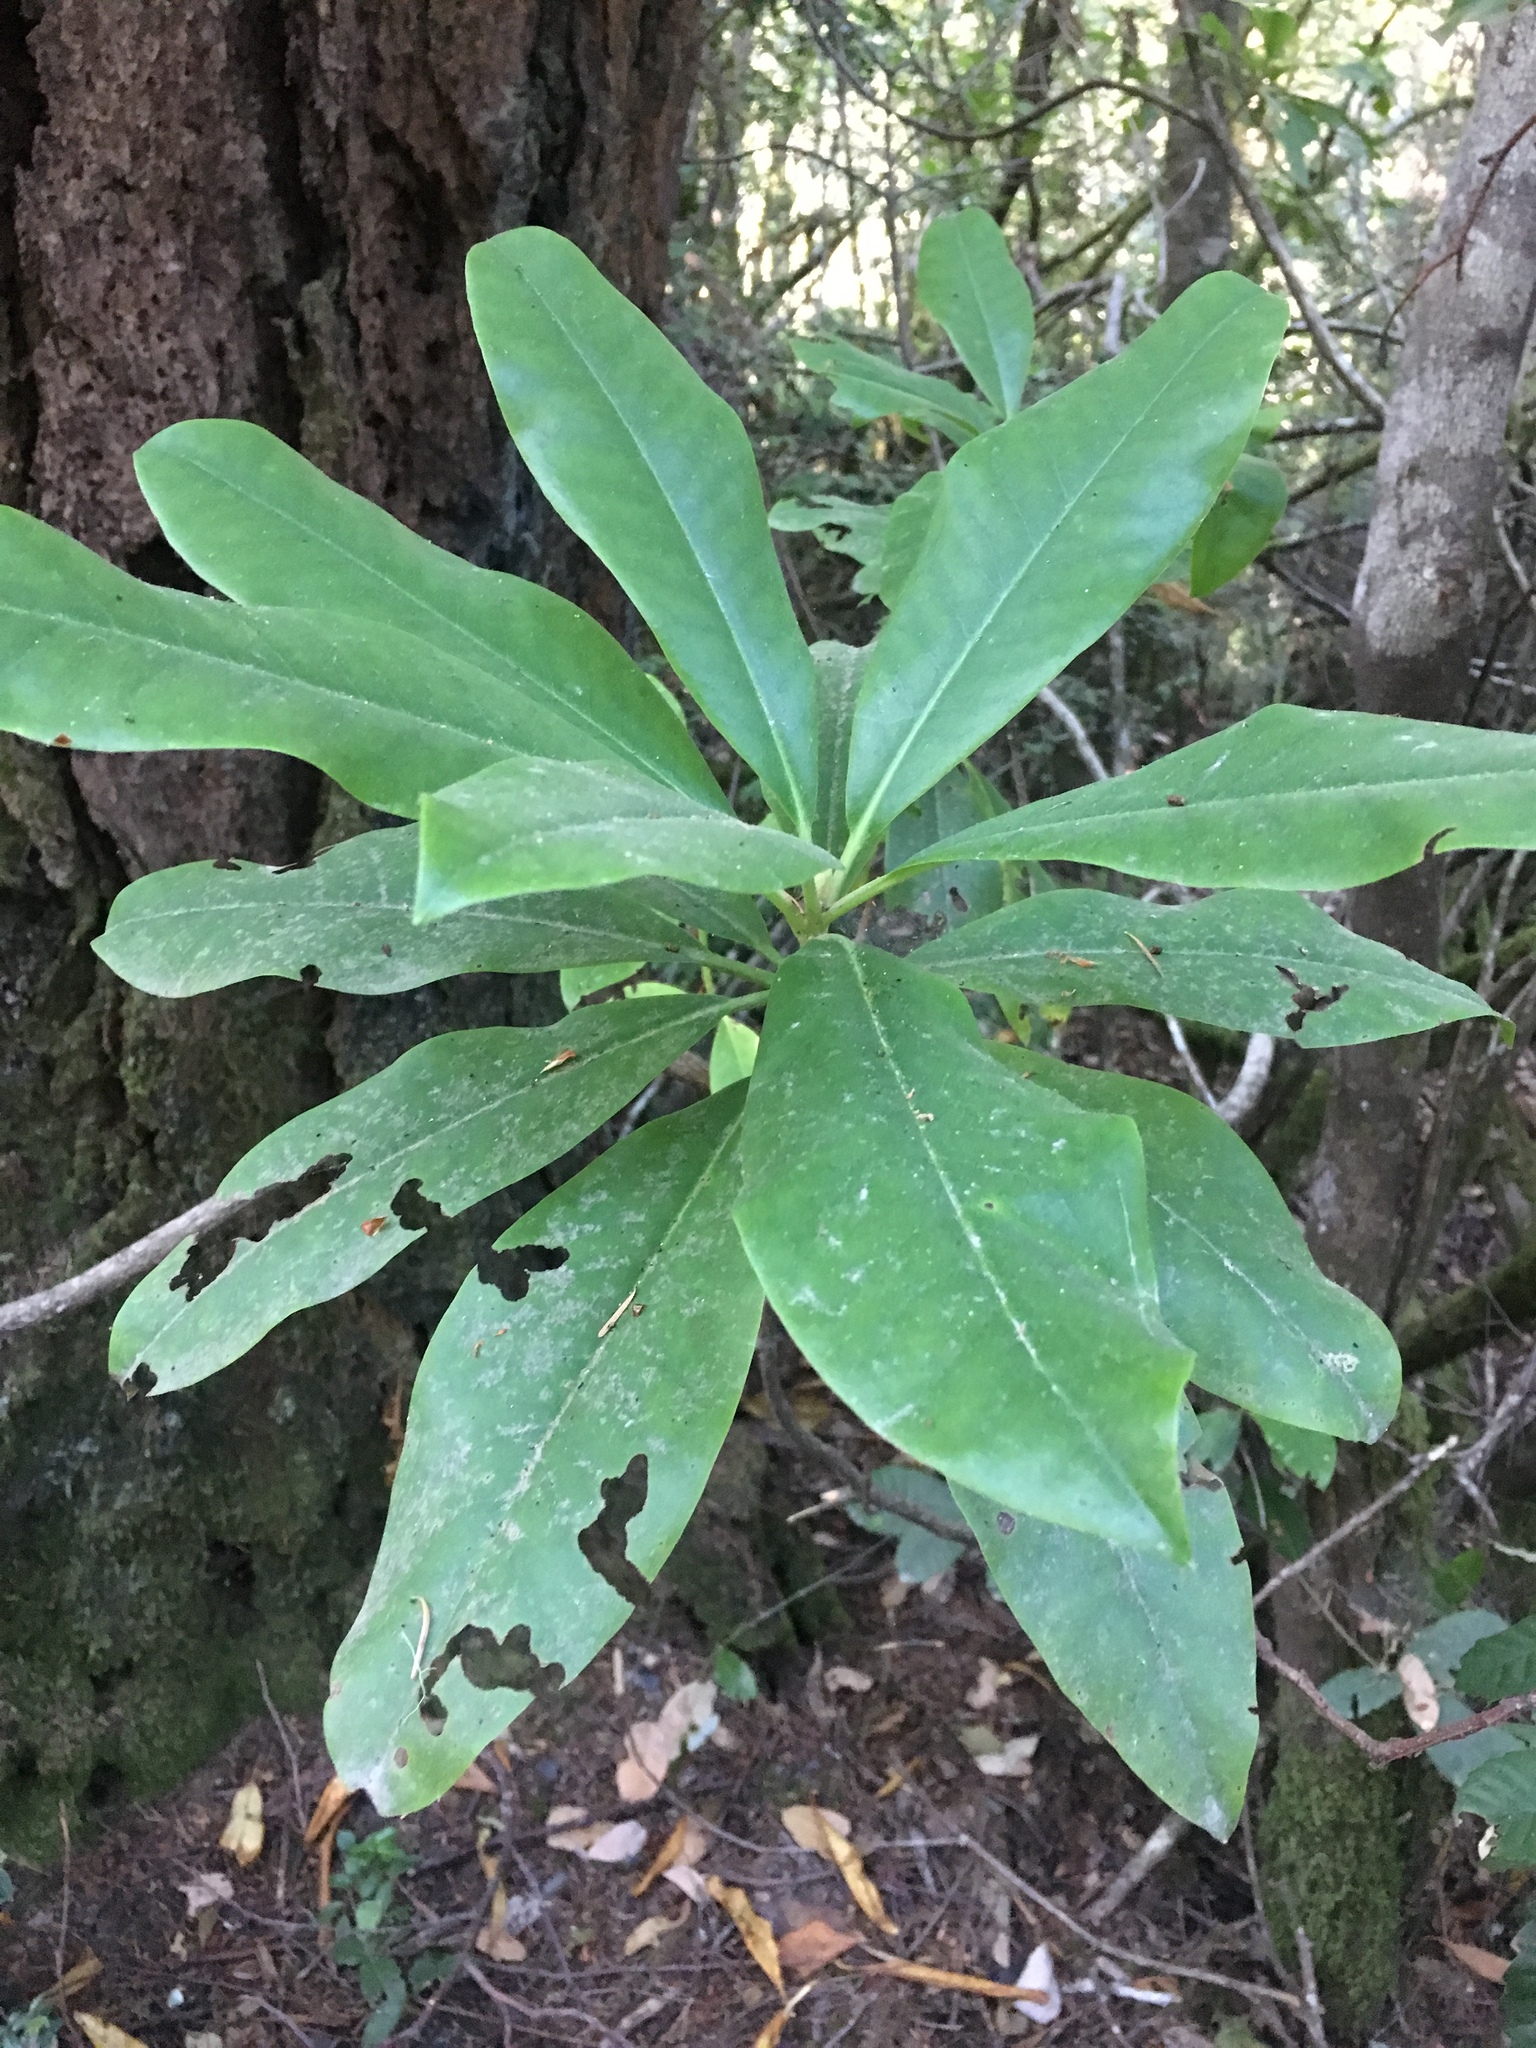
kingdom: Plantae
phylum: Tracheophyta
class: Magnoliopsida
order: Ericales
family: Ericaceae
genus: Rhododendron
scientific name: Rhododendron macrophyllum
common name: California rose bay
